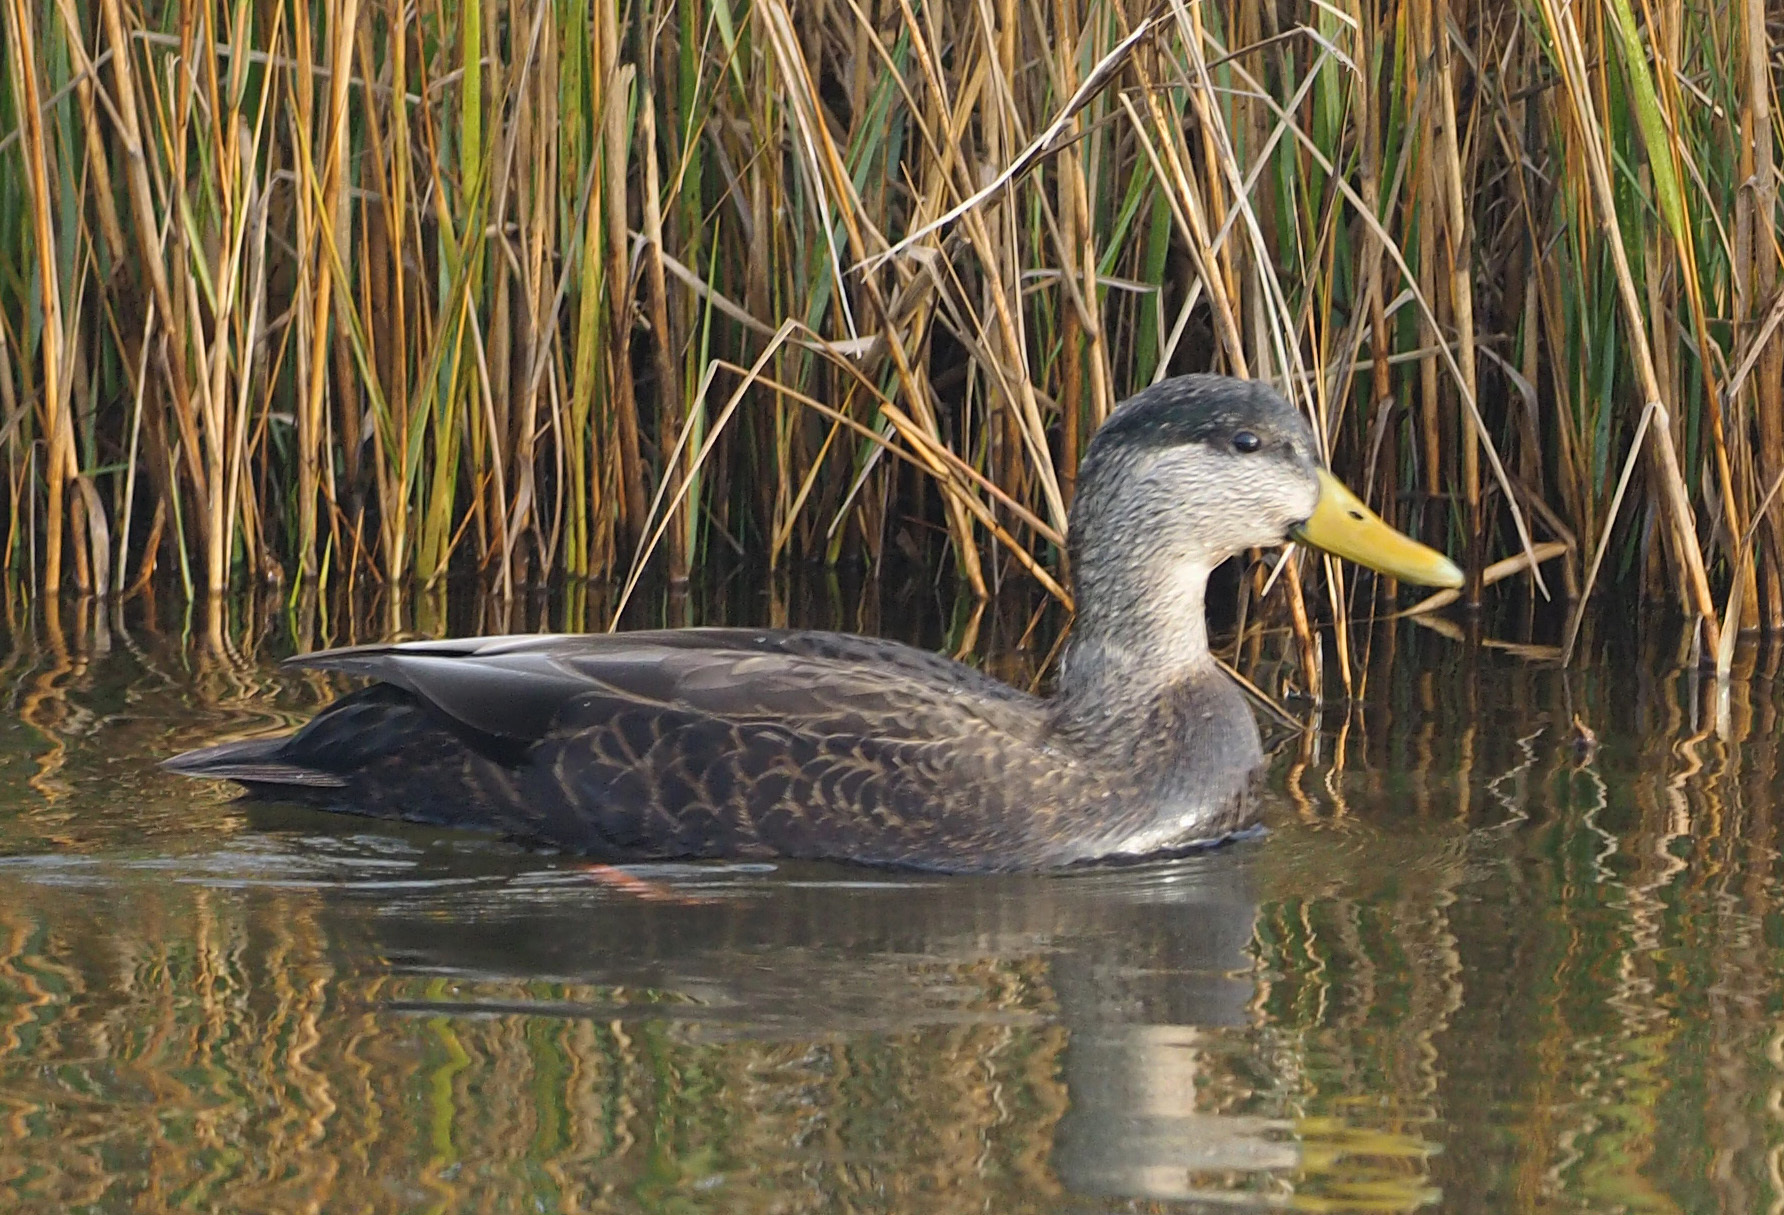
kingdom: Animalia
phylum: Chordata
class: Aves
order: Anseriformes
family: Anatidae
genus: Anas
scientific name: Anas rubripes
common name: American black duck
